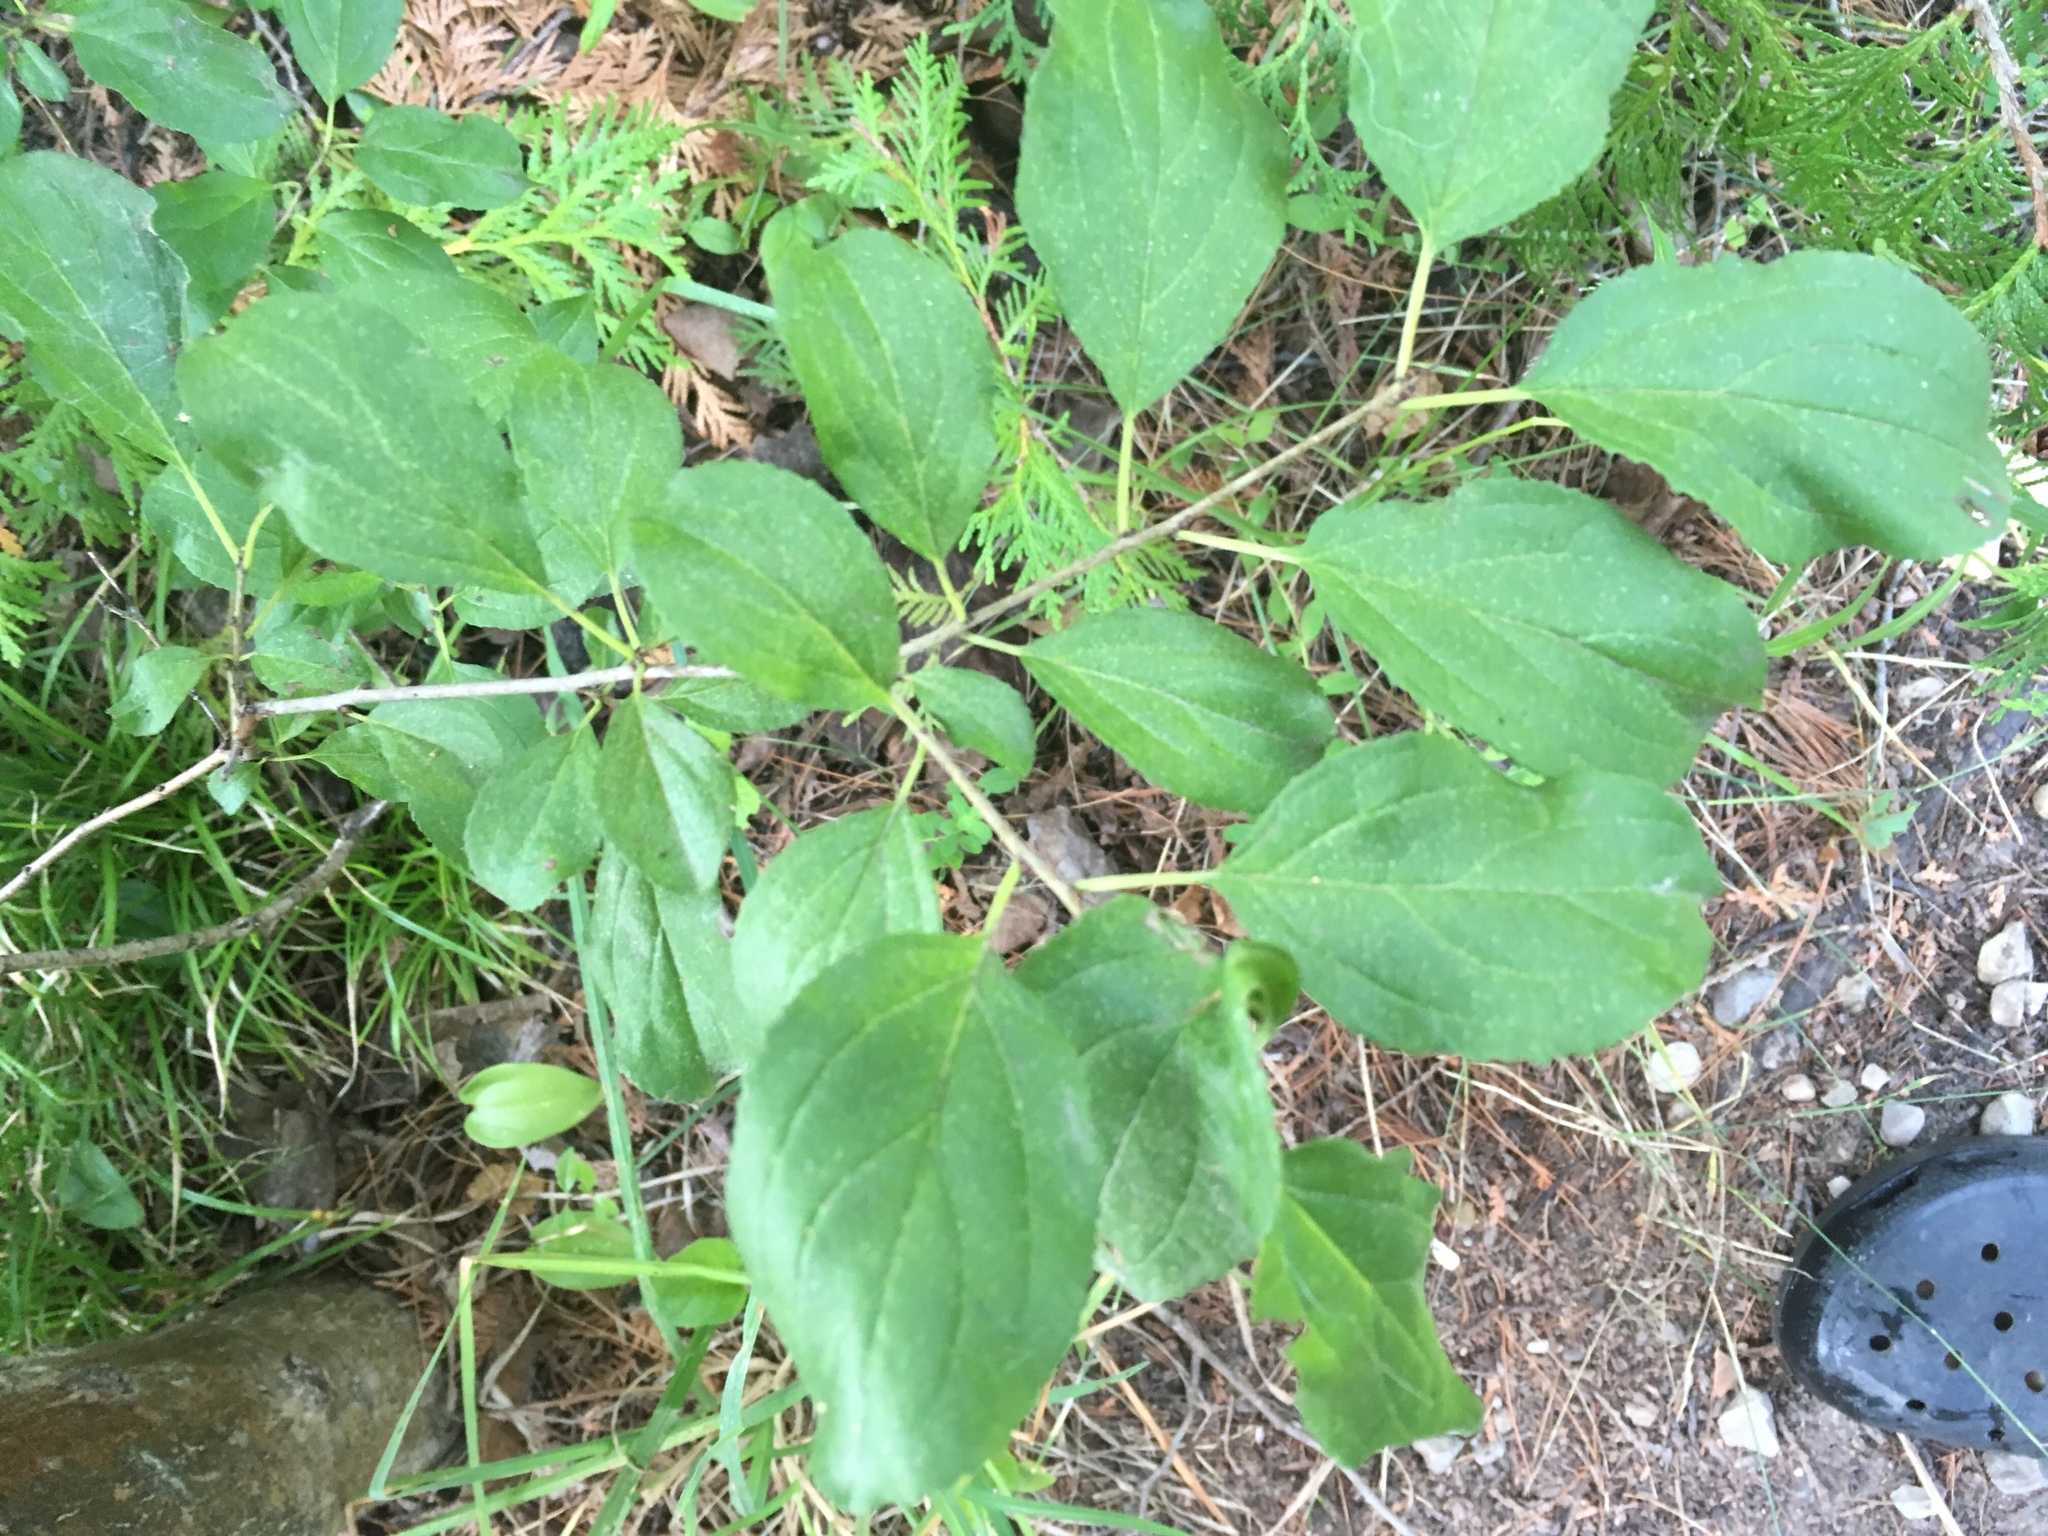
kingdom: Plantae
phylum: Tracheophyta
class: Magnoliopsida
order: Rosales
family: Rhamnaceae
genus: Rhamnus
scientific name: Rhamnus cathartica
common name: Common buckthorn
